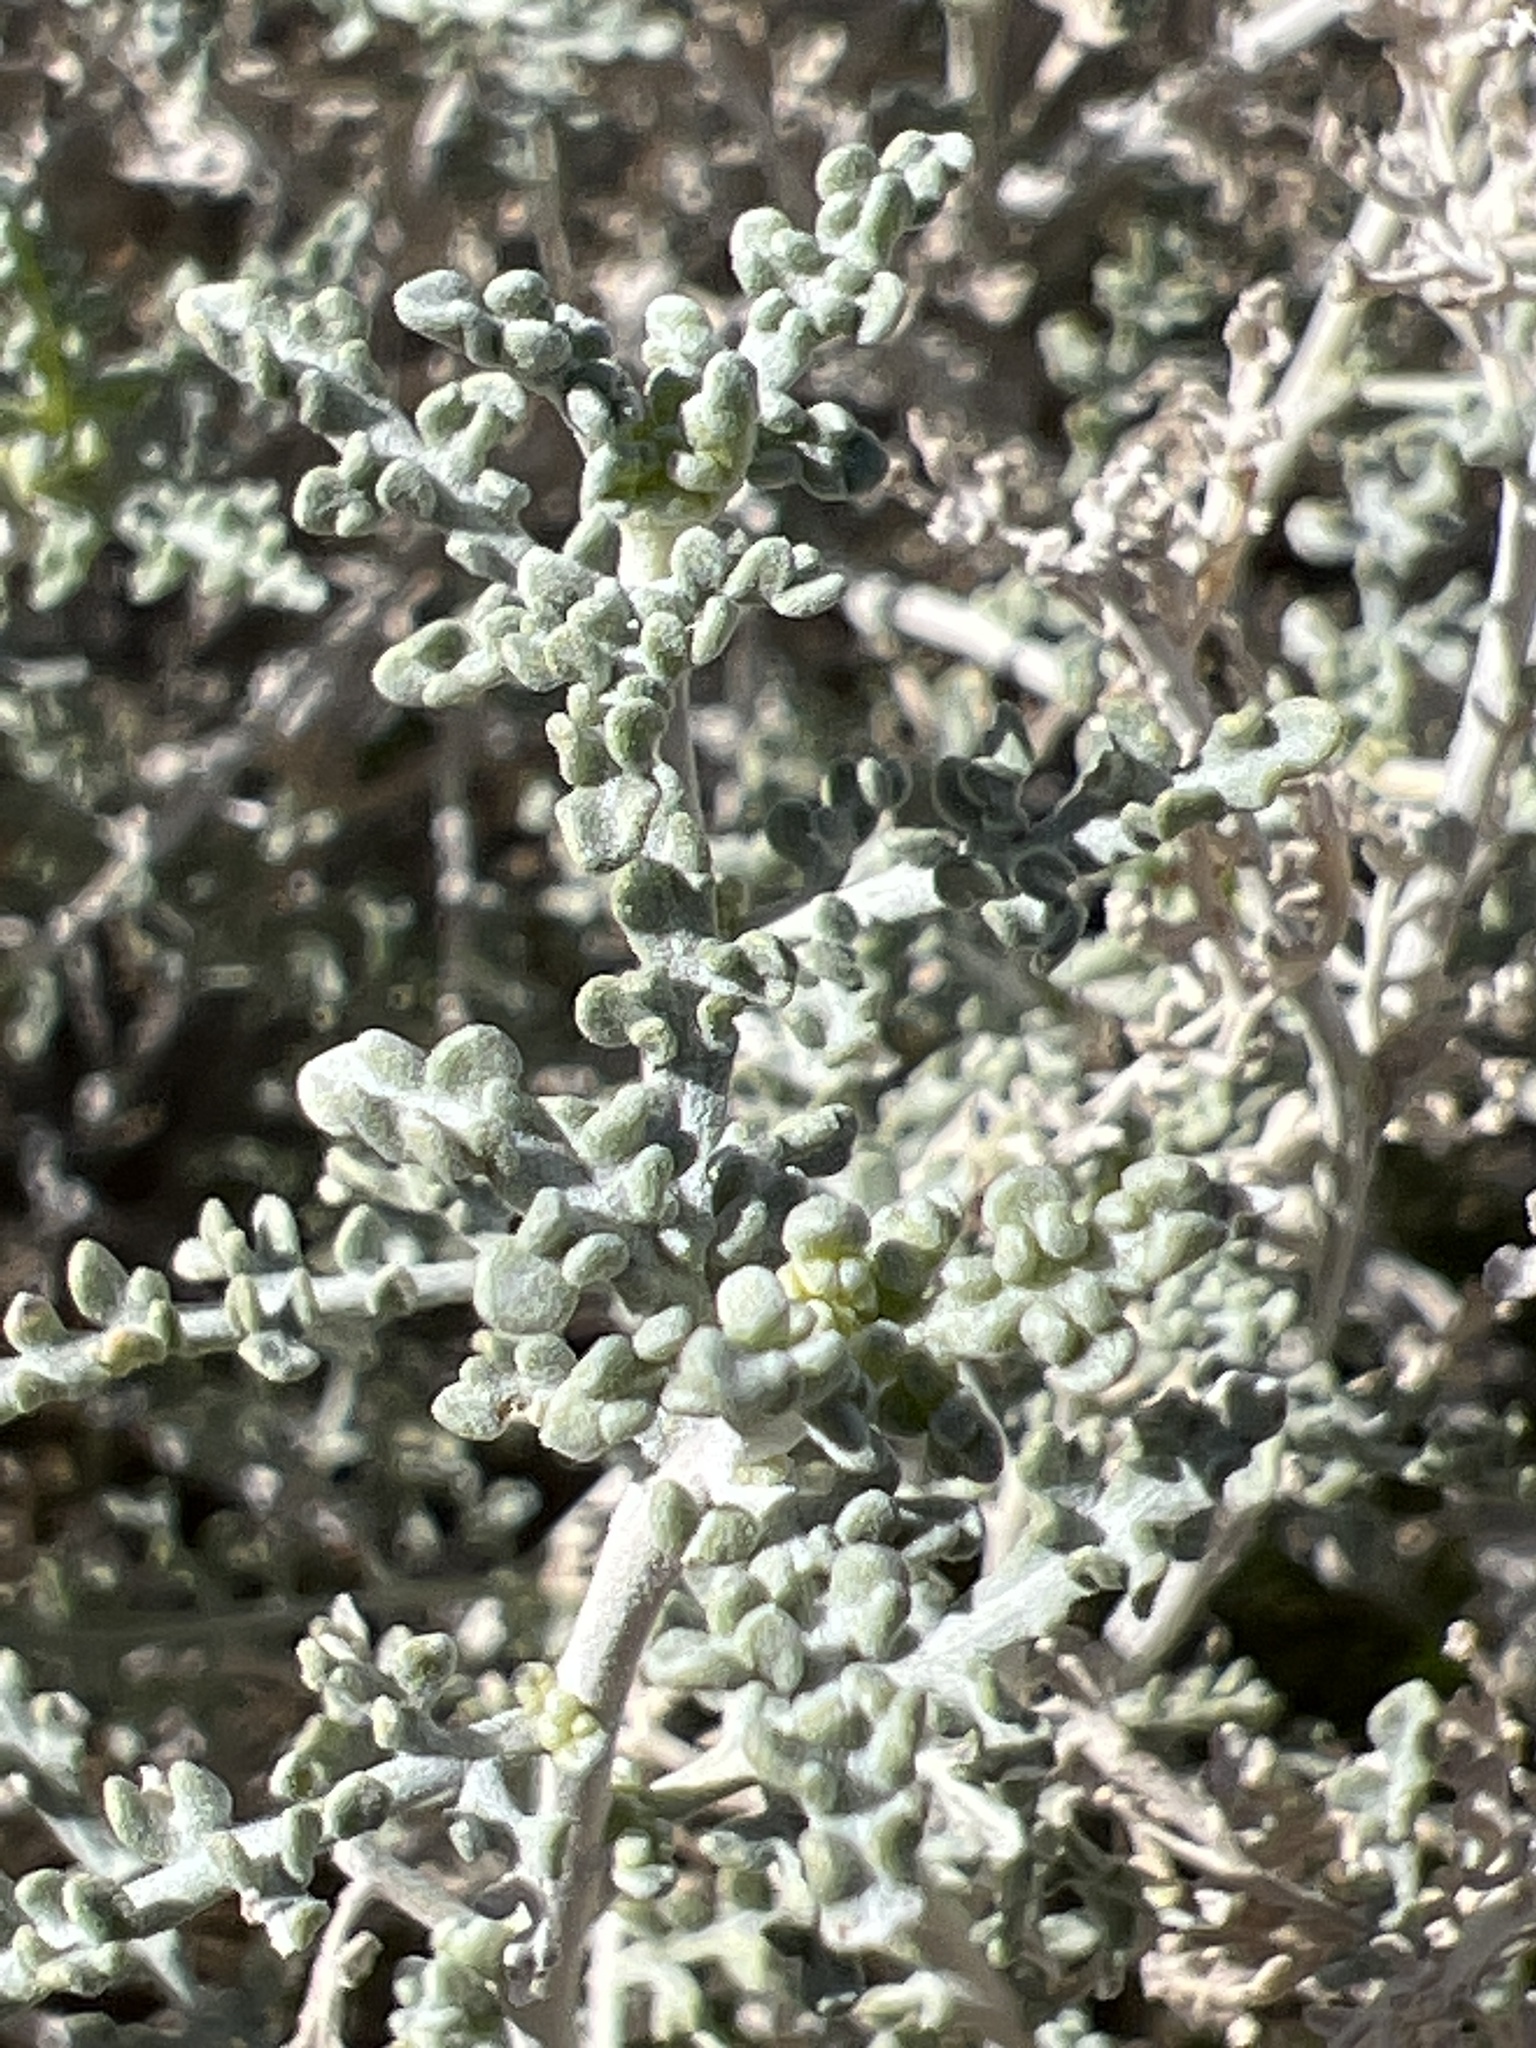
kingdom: Plantae
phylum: Tracheophyta
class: Magnoliopsida
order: Asterales
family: Asteraceae
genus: Ambrosia
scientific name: Ambrosia dumosa
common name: Bur-sage
